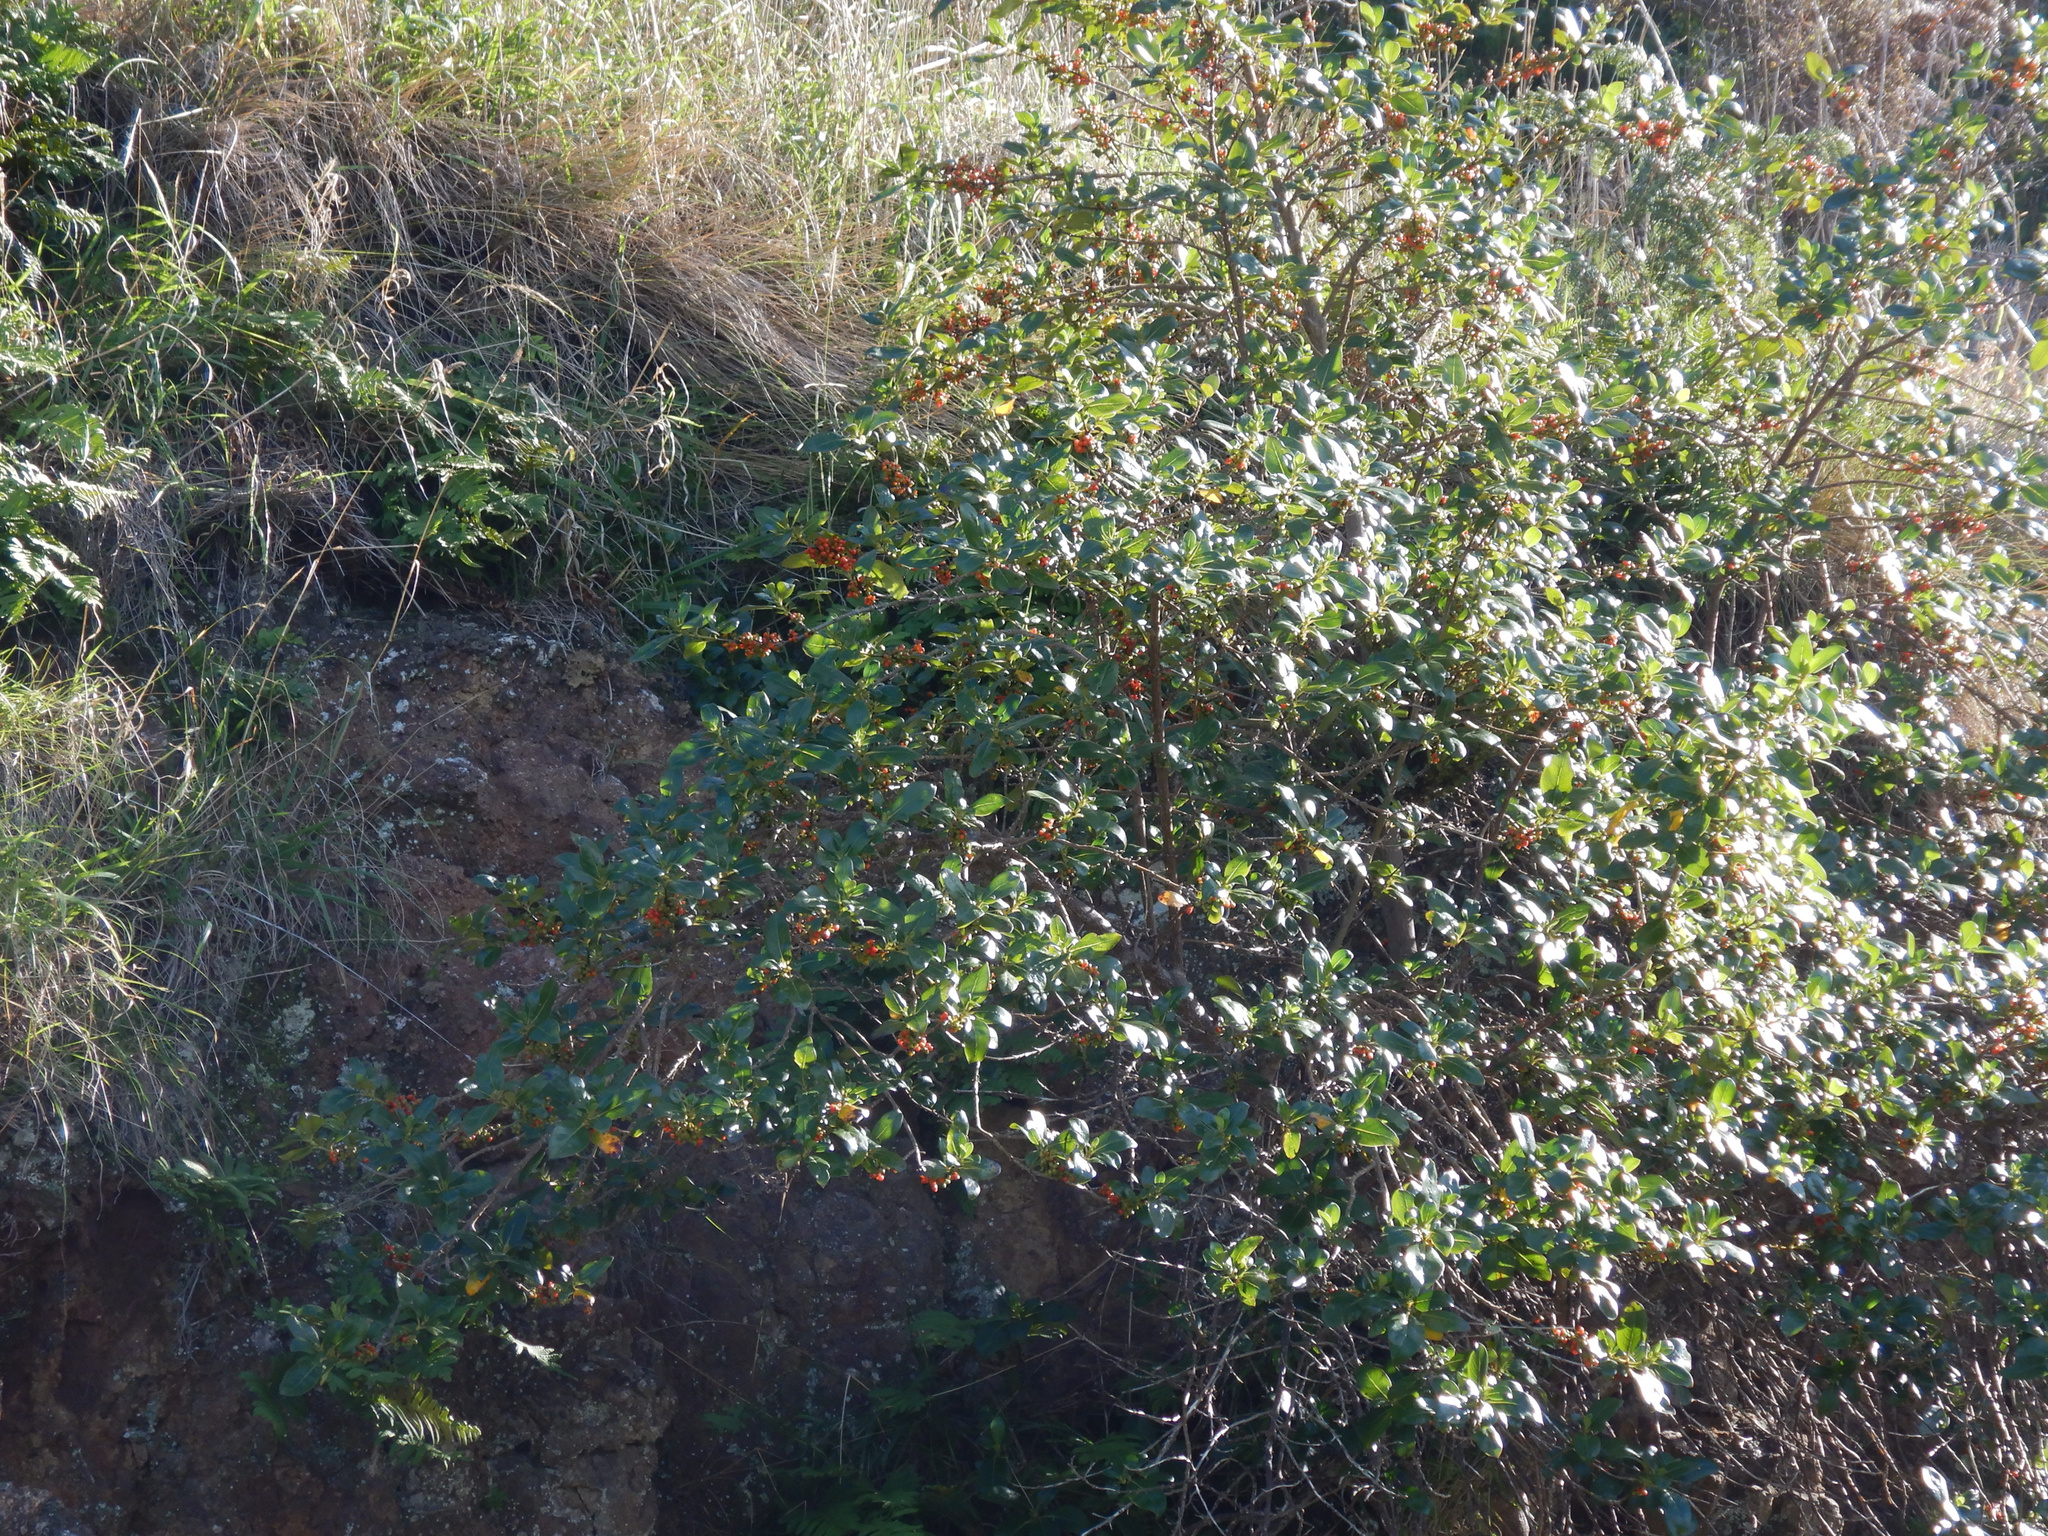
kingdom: Plantae
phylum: Tracheophyta
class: Magnoliopsida
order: Gentianales
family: Rubiaceae
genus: Coprosma
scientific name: Coprosma robusta
